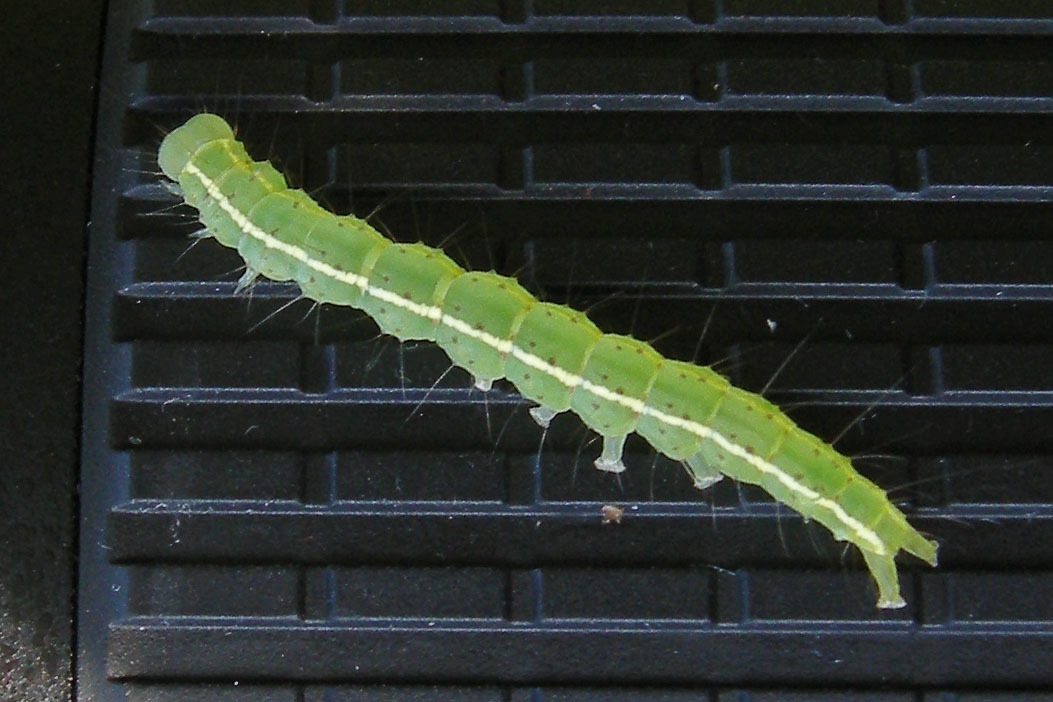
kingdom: Animalia
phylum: Arthropoda
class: Insecta
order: Lepidoptera
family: Erebidae
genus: Hypena
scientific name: Hypena madefactalis
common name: Gray-edged snout
